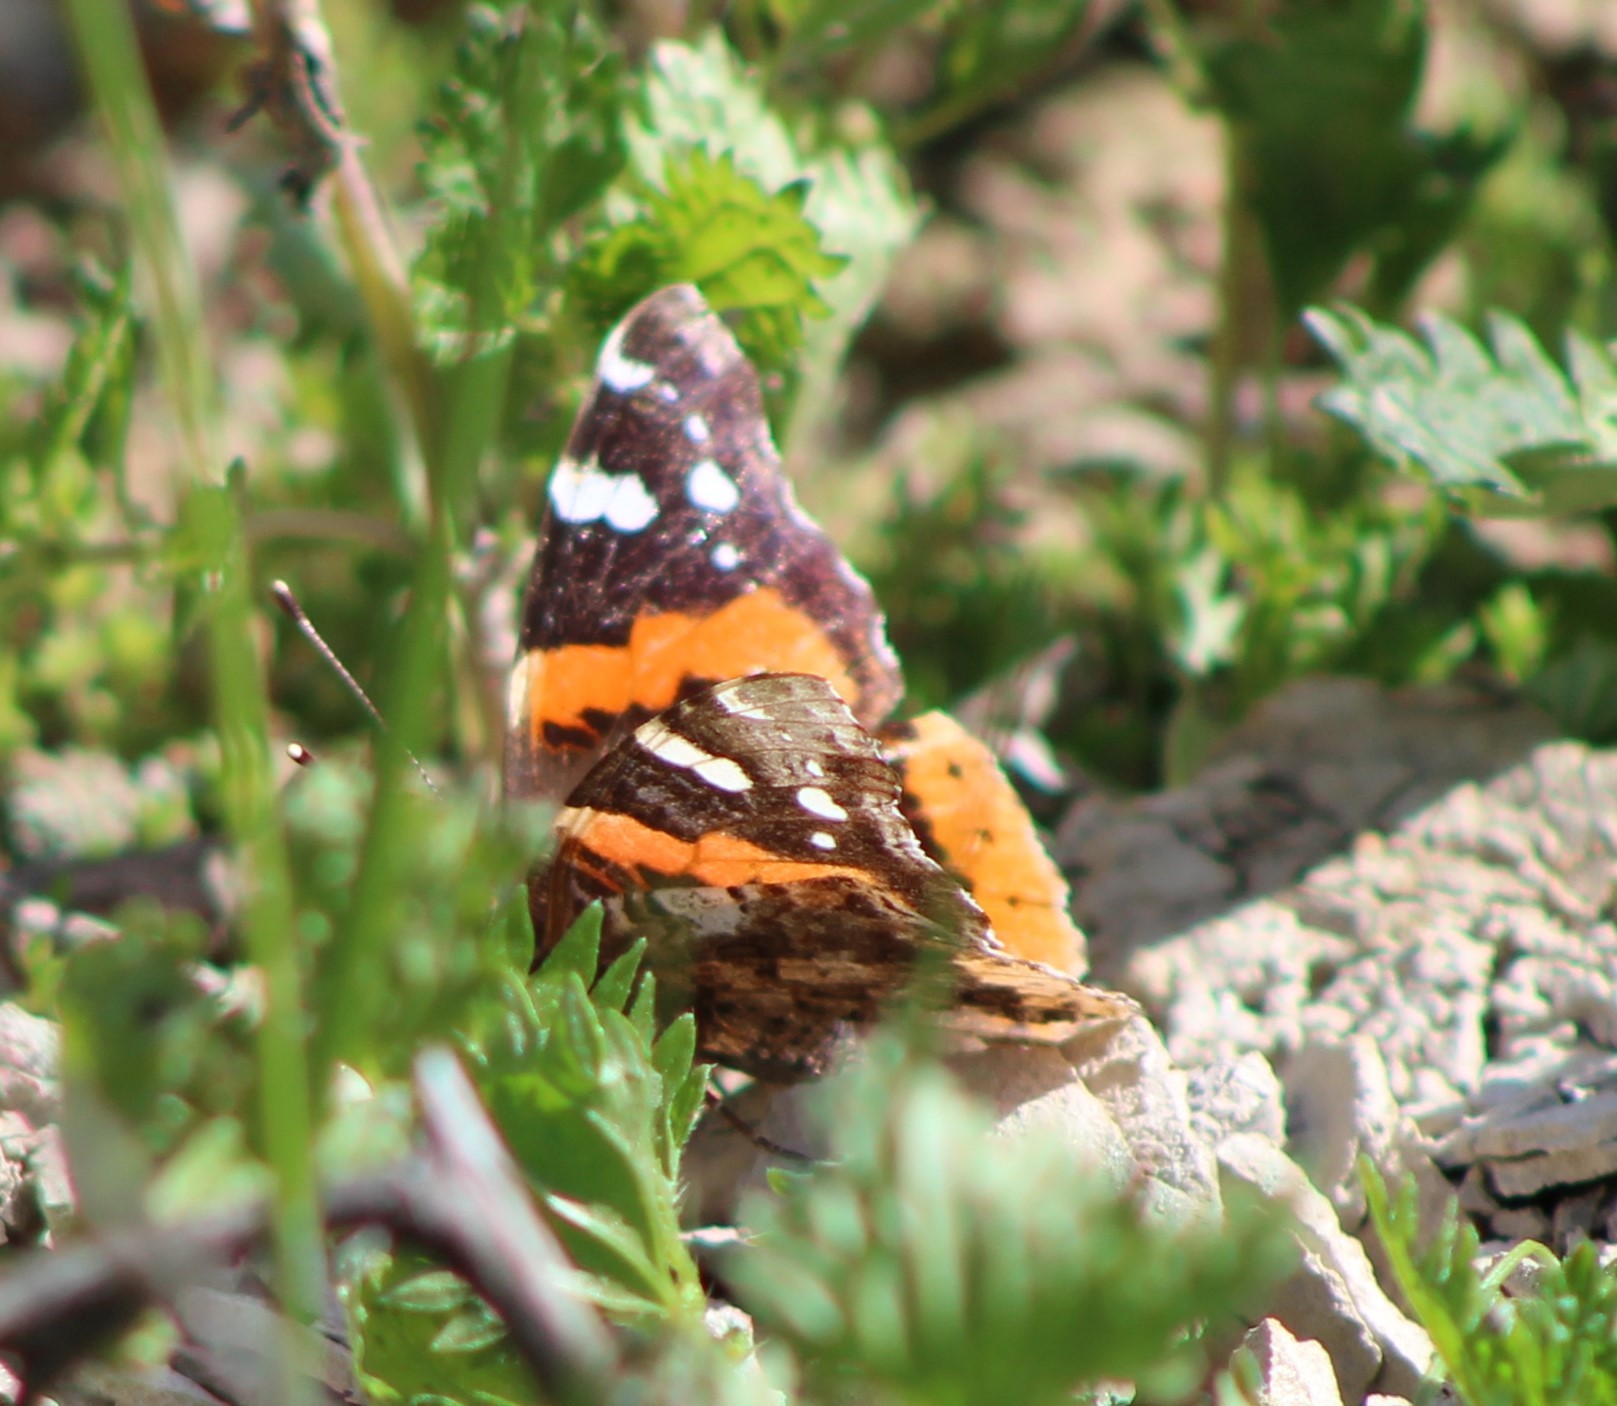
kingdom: Animalia
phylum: Arthropoda
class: Insecta
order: Lepidoptera
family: Nymphalidae
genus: Vanessa
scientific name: Vanessa atalanta
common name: Red admiral
